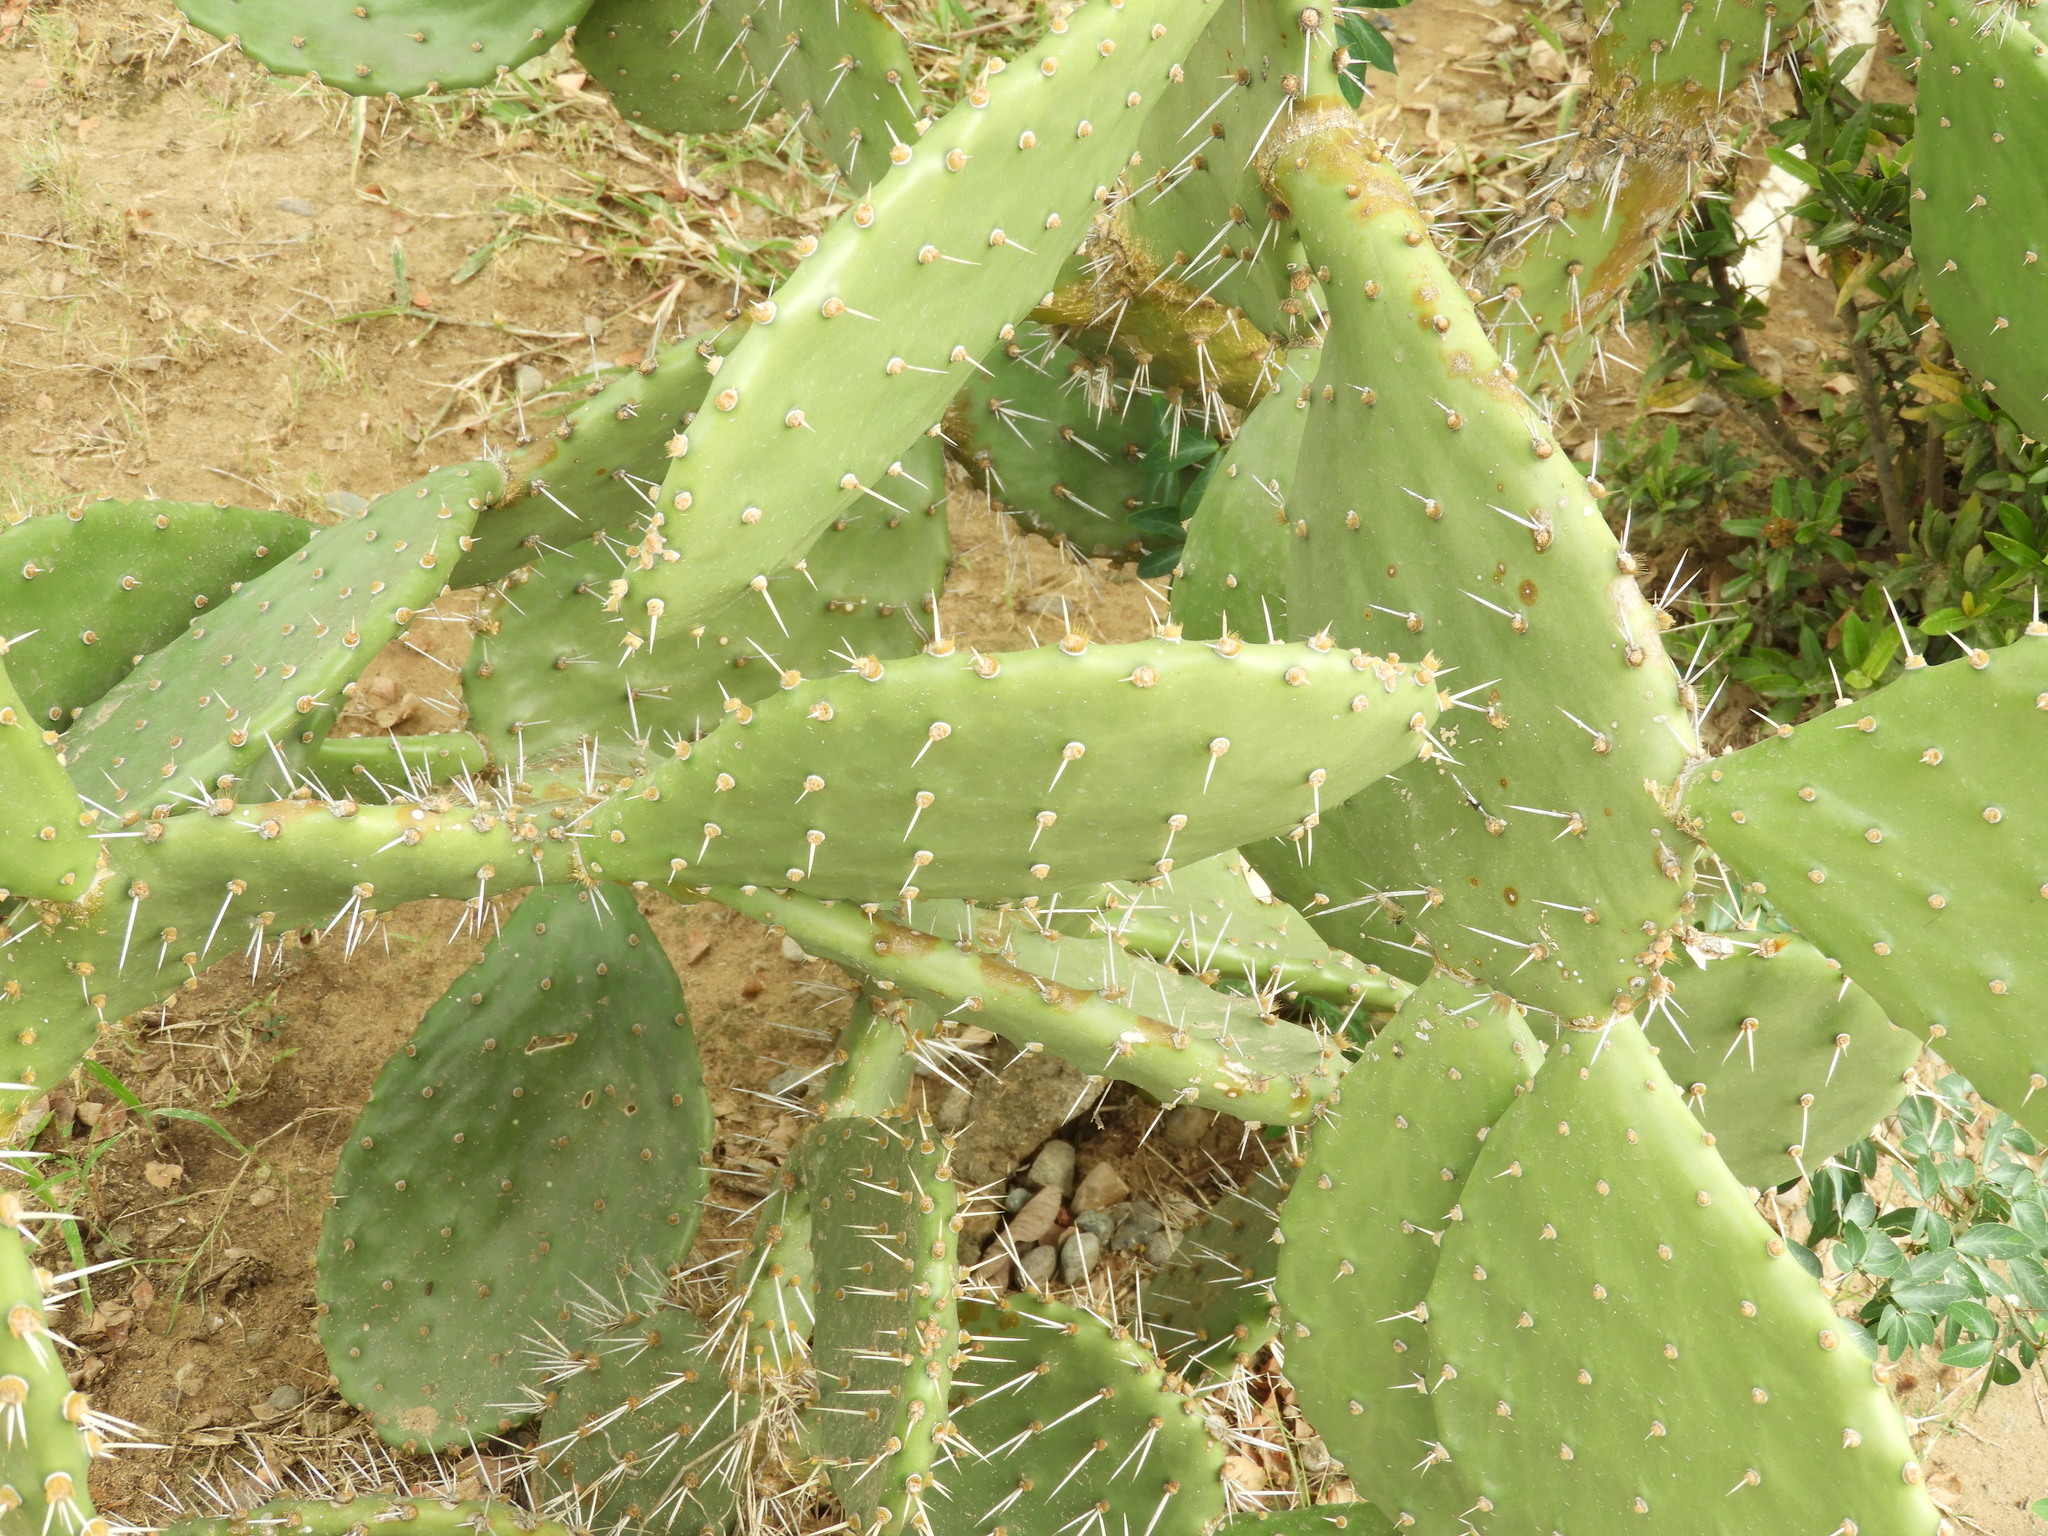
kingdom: Plantae
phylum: Tracheophyta
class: Magnoliopsida
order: Caryophyllales
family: Cactaceae
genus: Opuntia
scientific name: Opuntia
